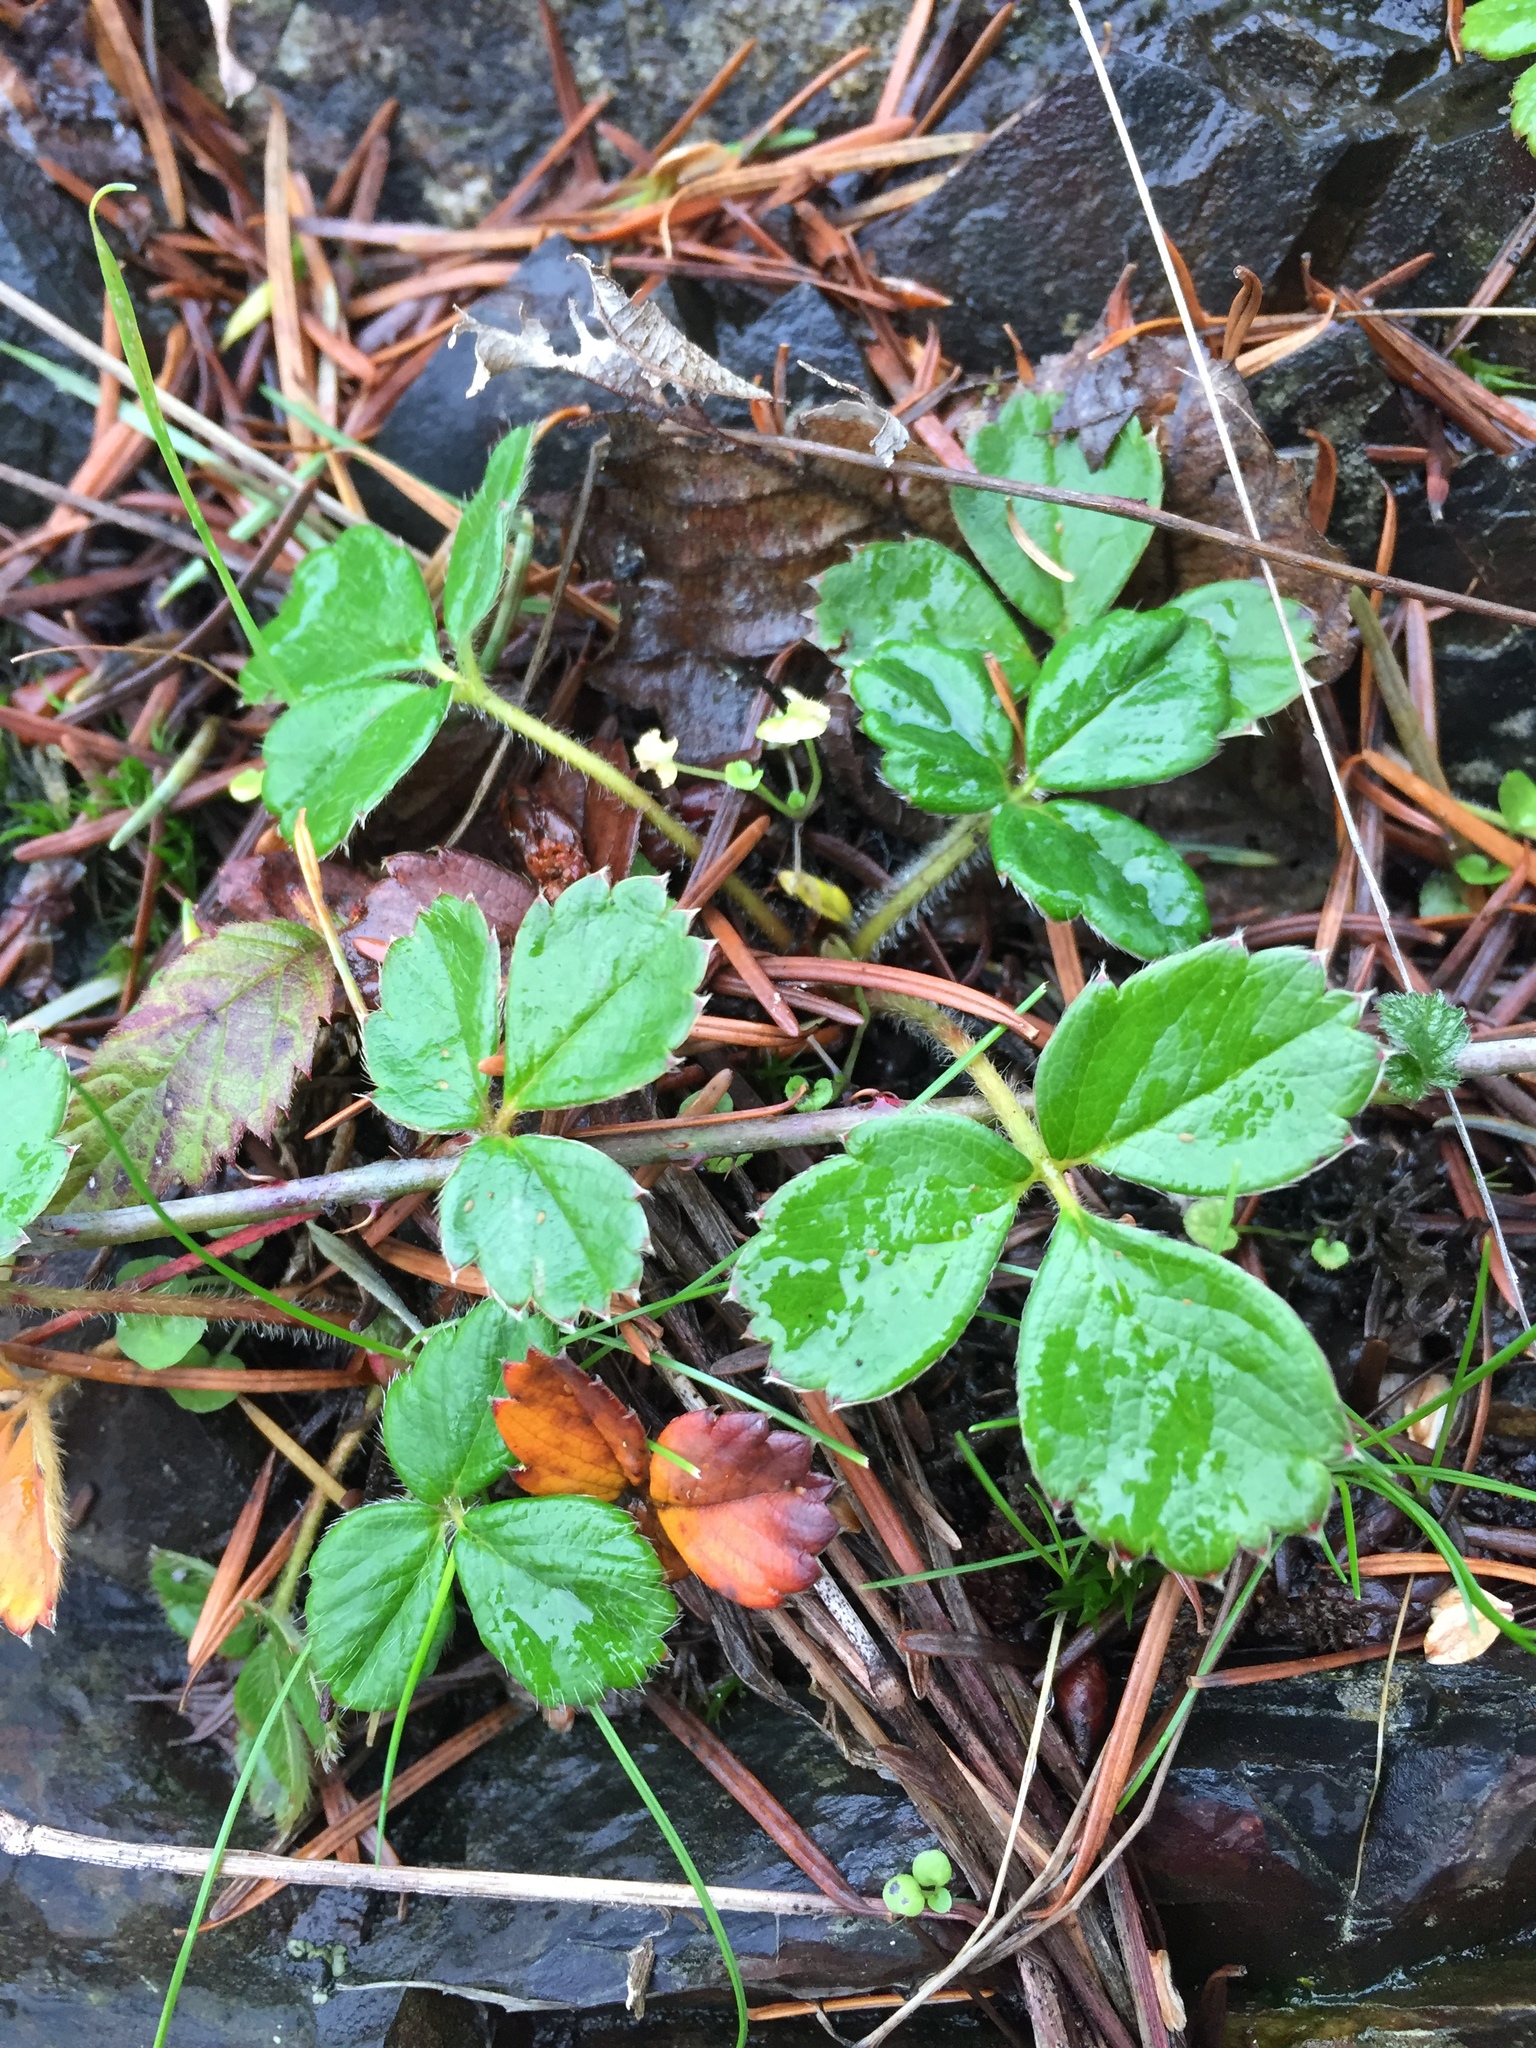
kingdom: Plantae
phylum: Tracheophyta
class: Magnoliopsida
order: Rosales
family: Rosaceae
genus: Fragaria
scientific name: Fragaria chiloensis
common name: Beach strawberry
